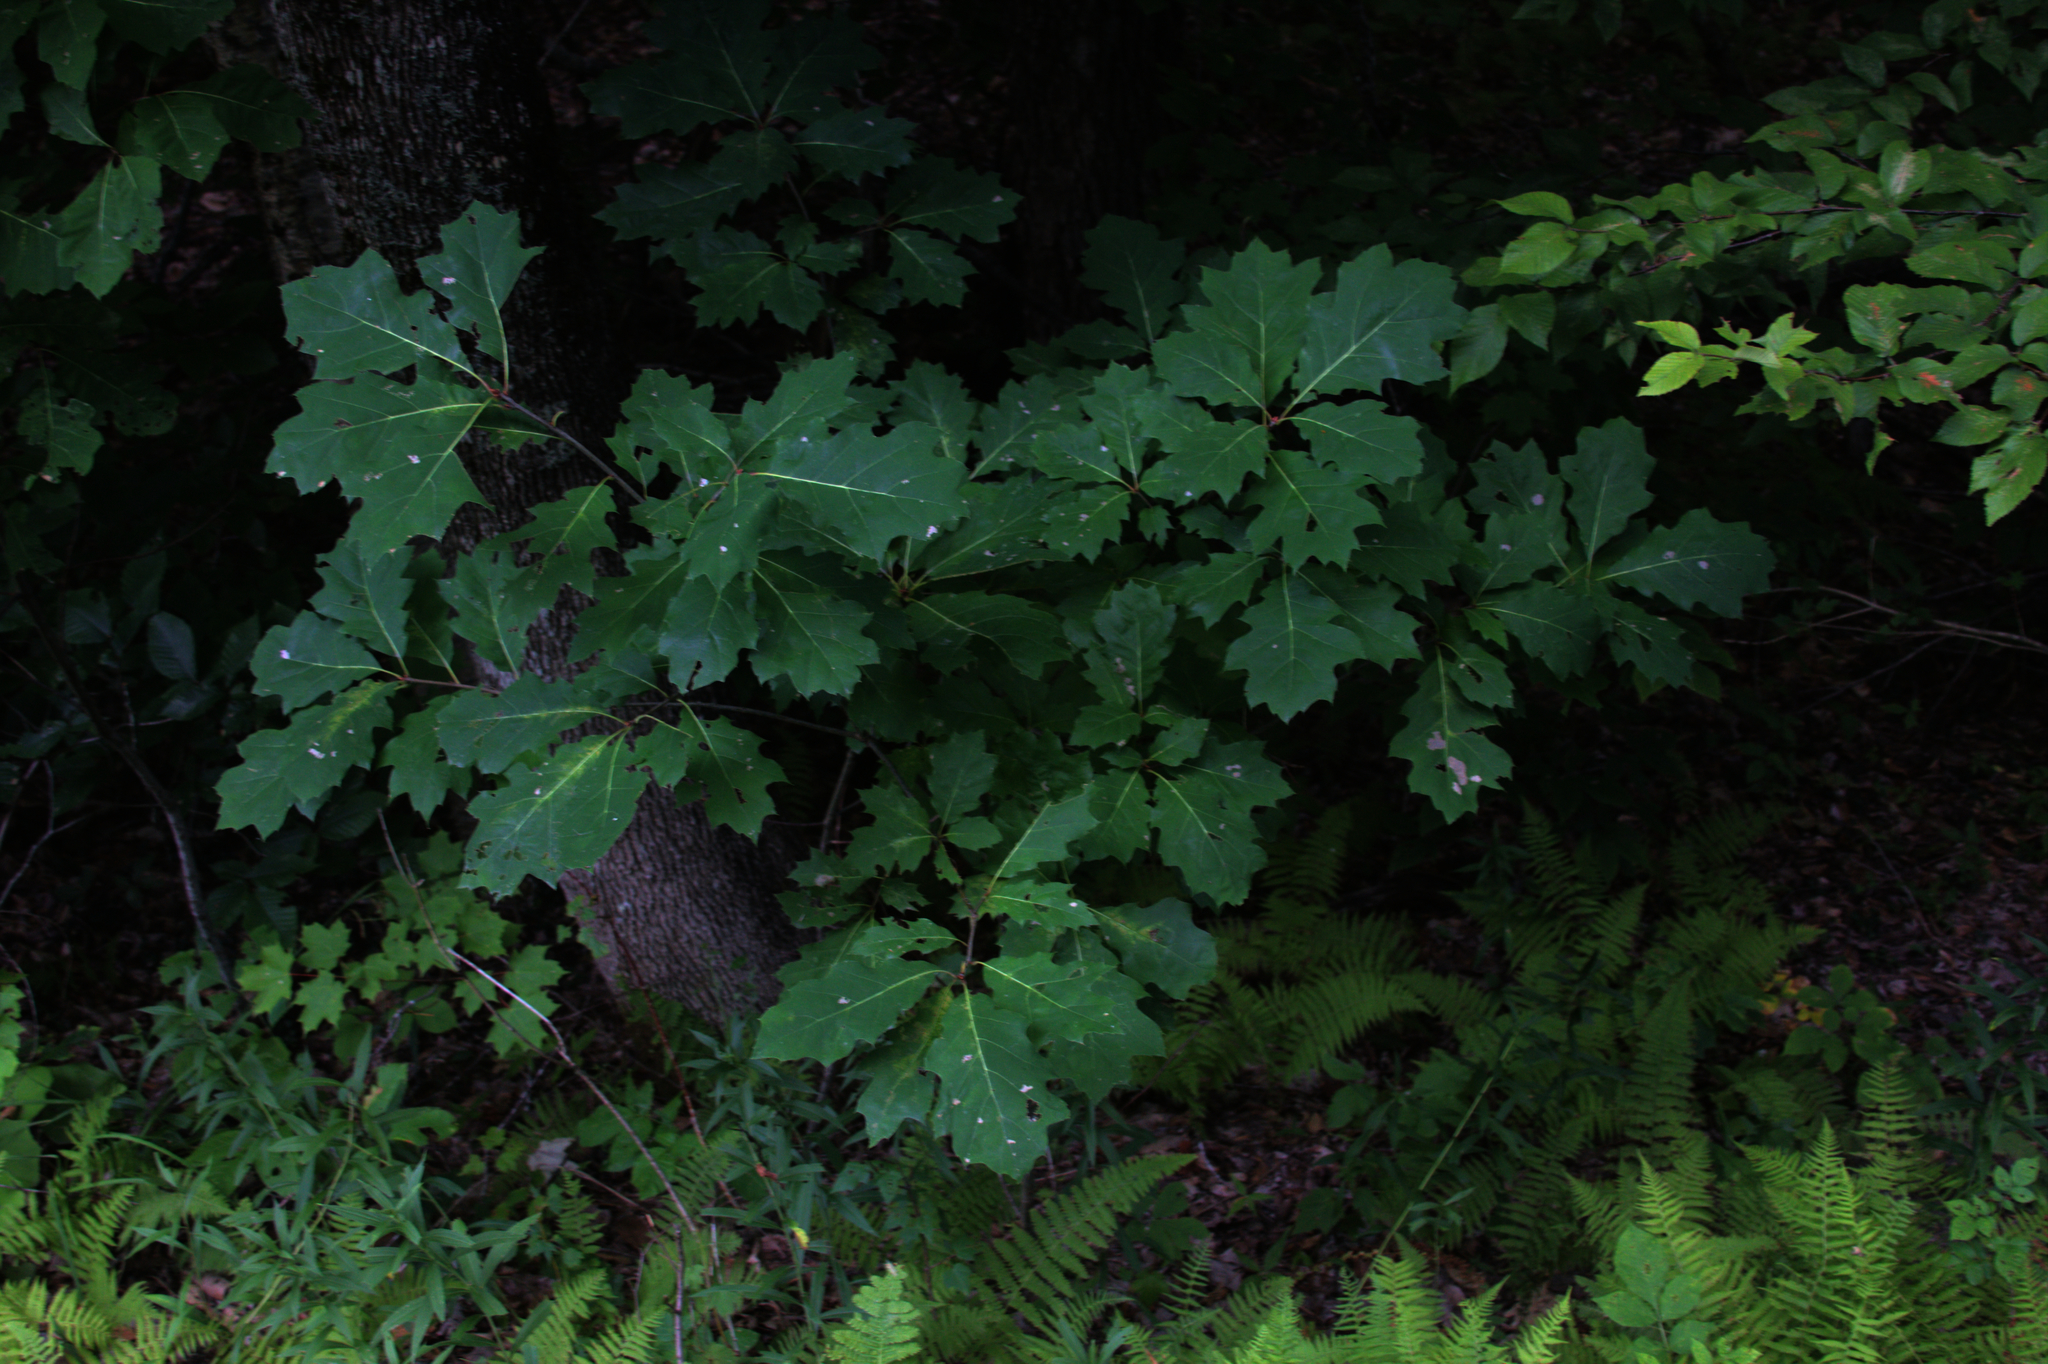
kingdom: Plantae
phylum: Tracheophyta
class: Magnoliopsida
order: Fagales
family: Fagaceae
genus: Quercus
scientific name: Quercus rubra
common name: Red oak
